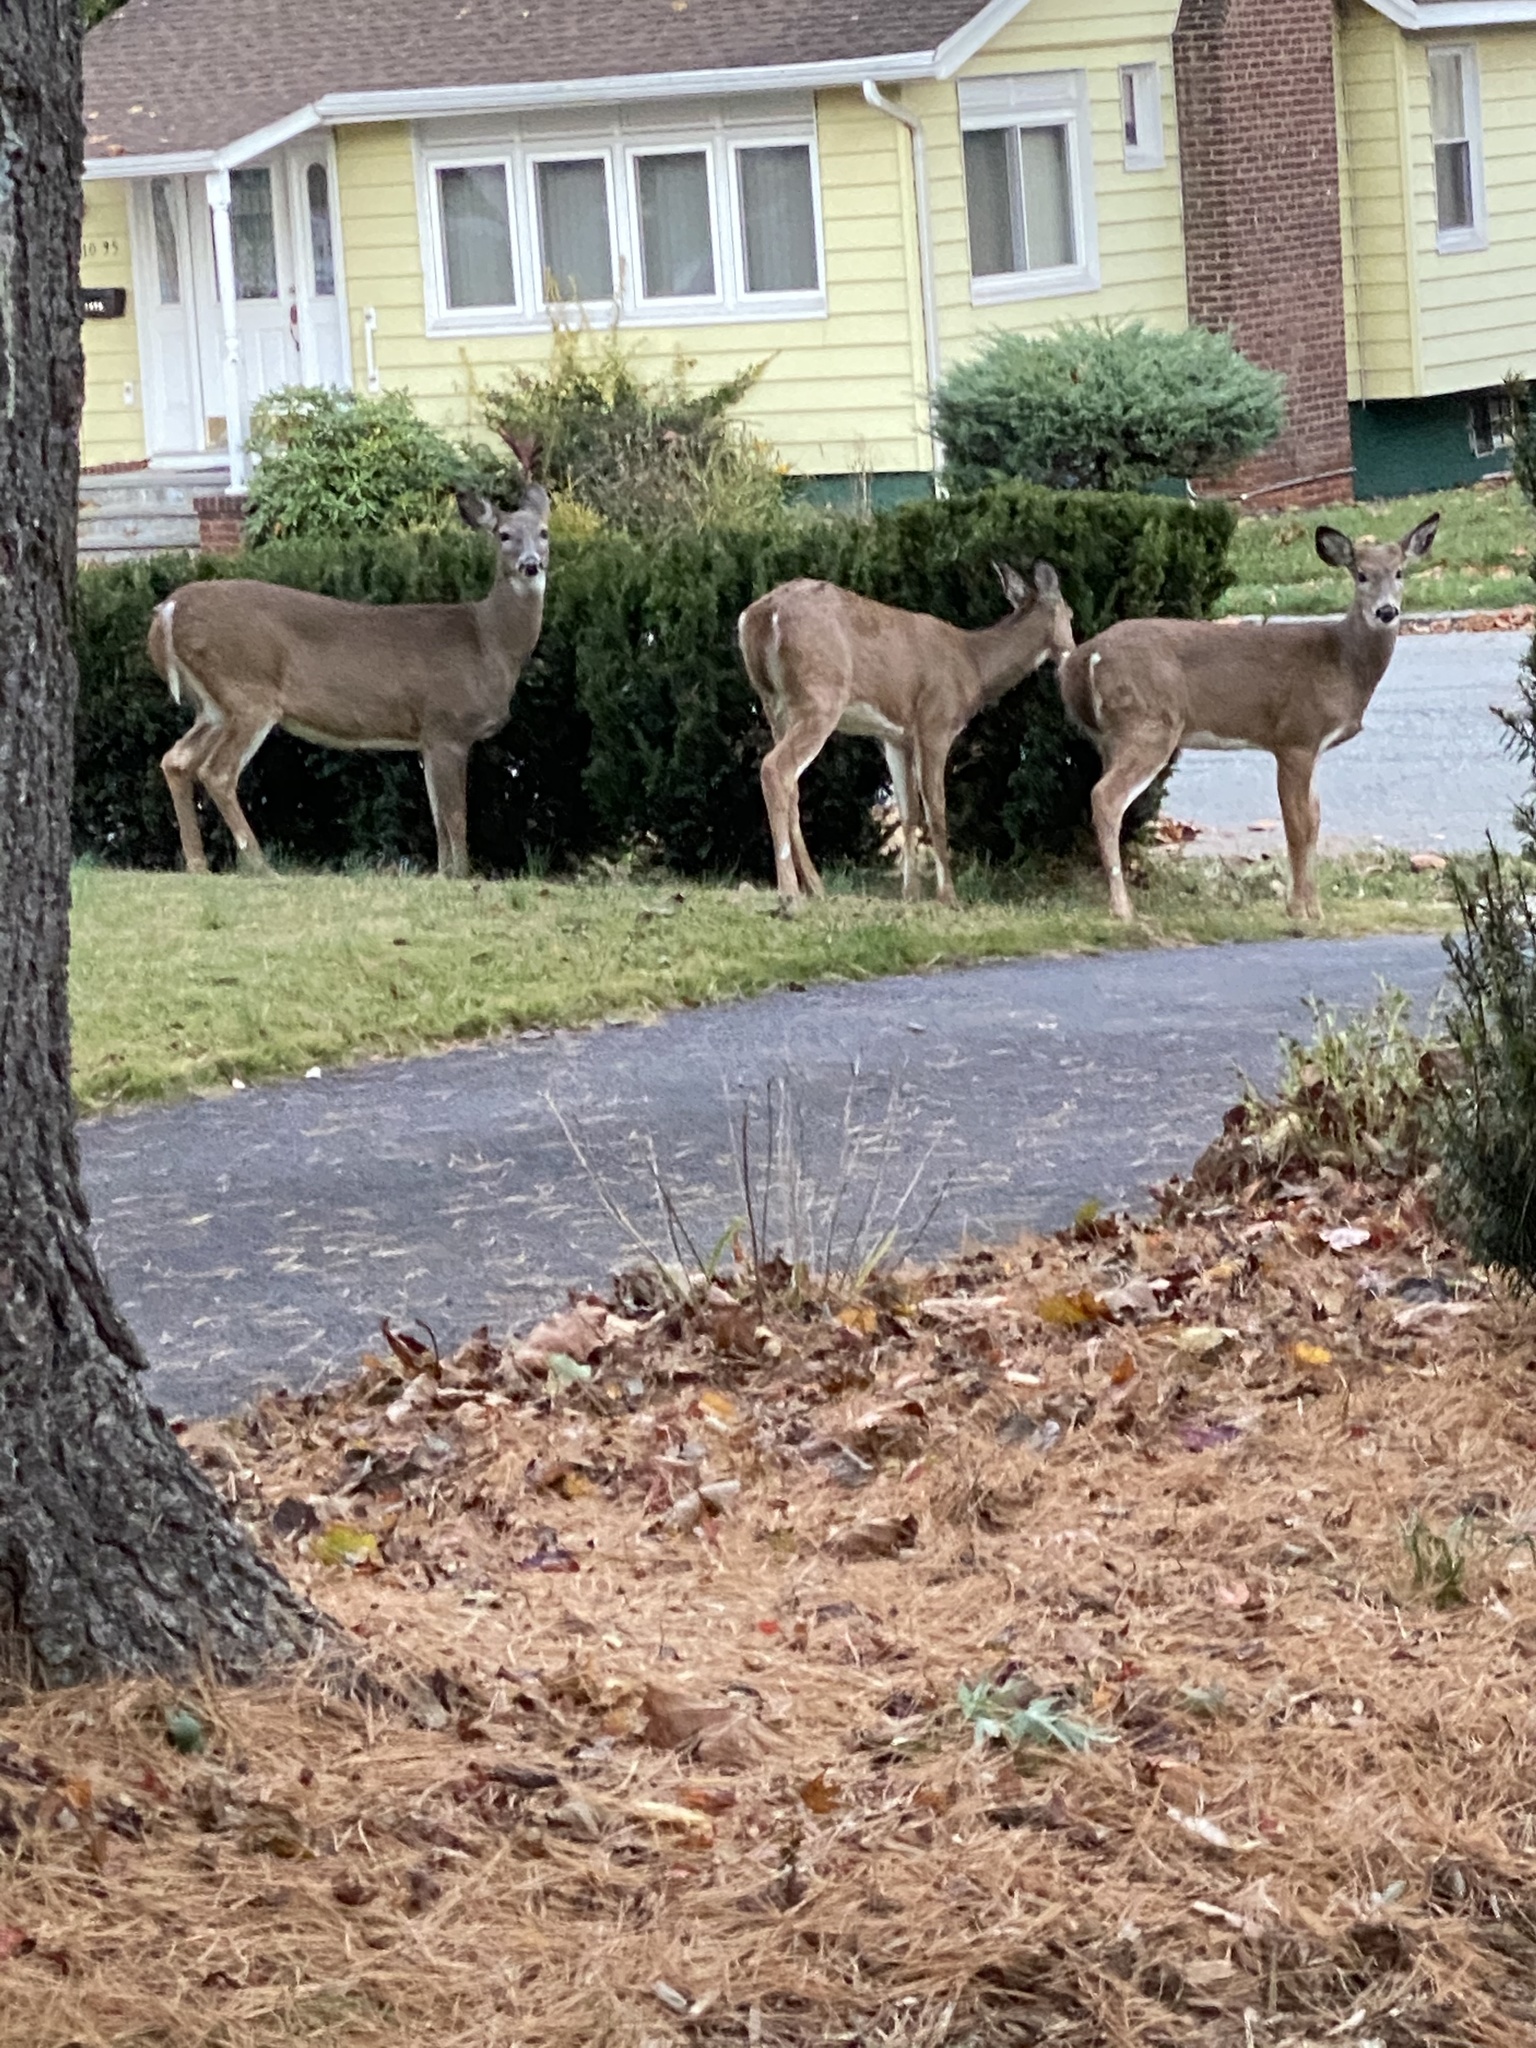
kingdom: Animalia
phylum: Chordata
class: Mammalia
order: Artiodactyla
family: Cervidae
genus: Odocoileus
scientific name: Odocoileus virginianus
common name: White-tailed deer
